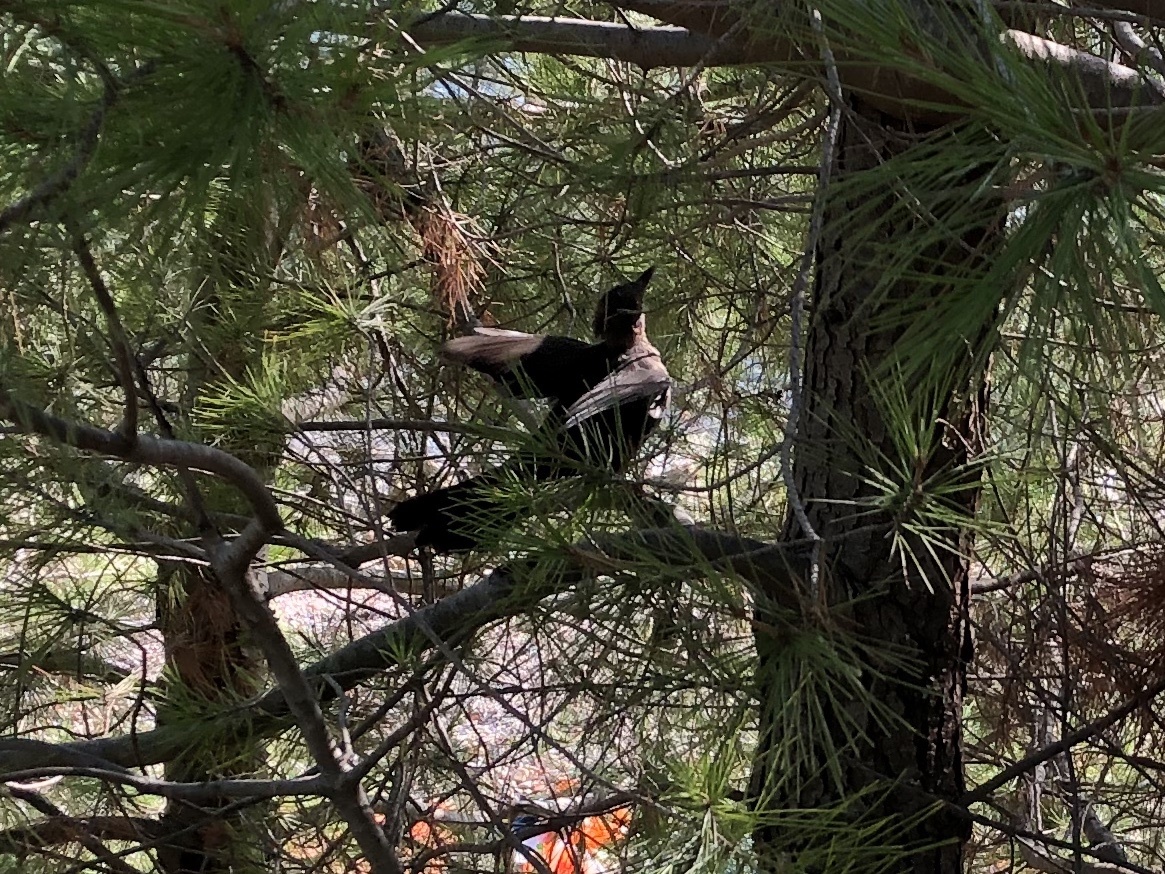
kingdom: Animalia
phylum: Chordata
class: Aves
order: Passeriformes
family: Turdidae
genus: Turdus
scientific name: Turdus merula
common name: Common blackbird
